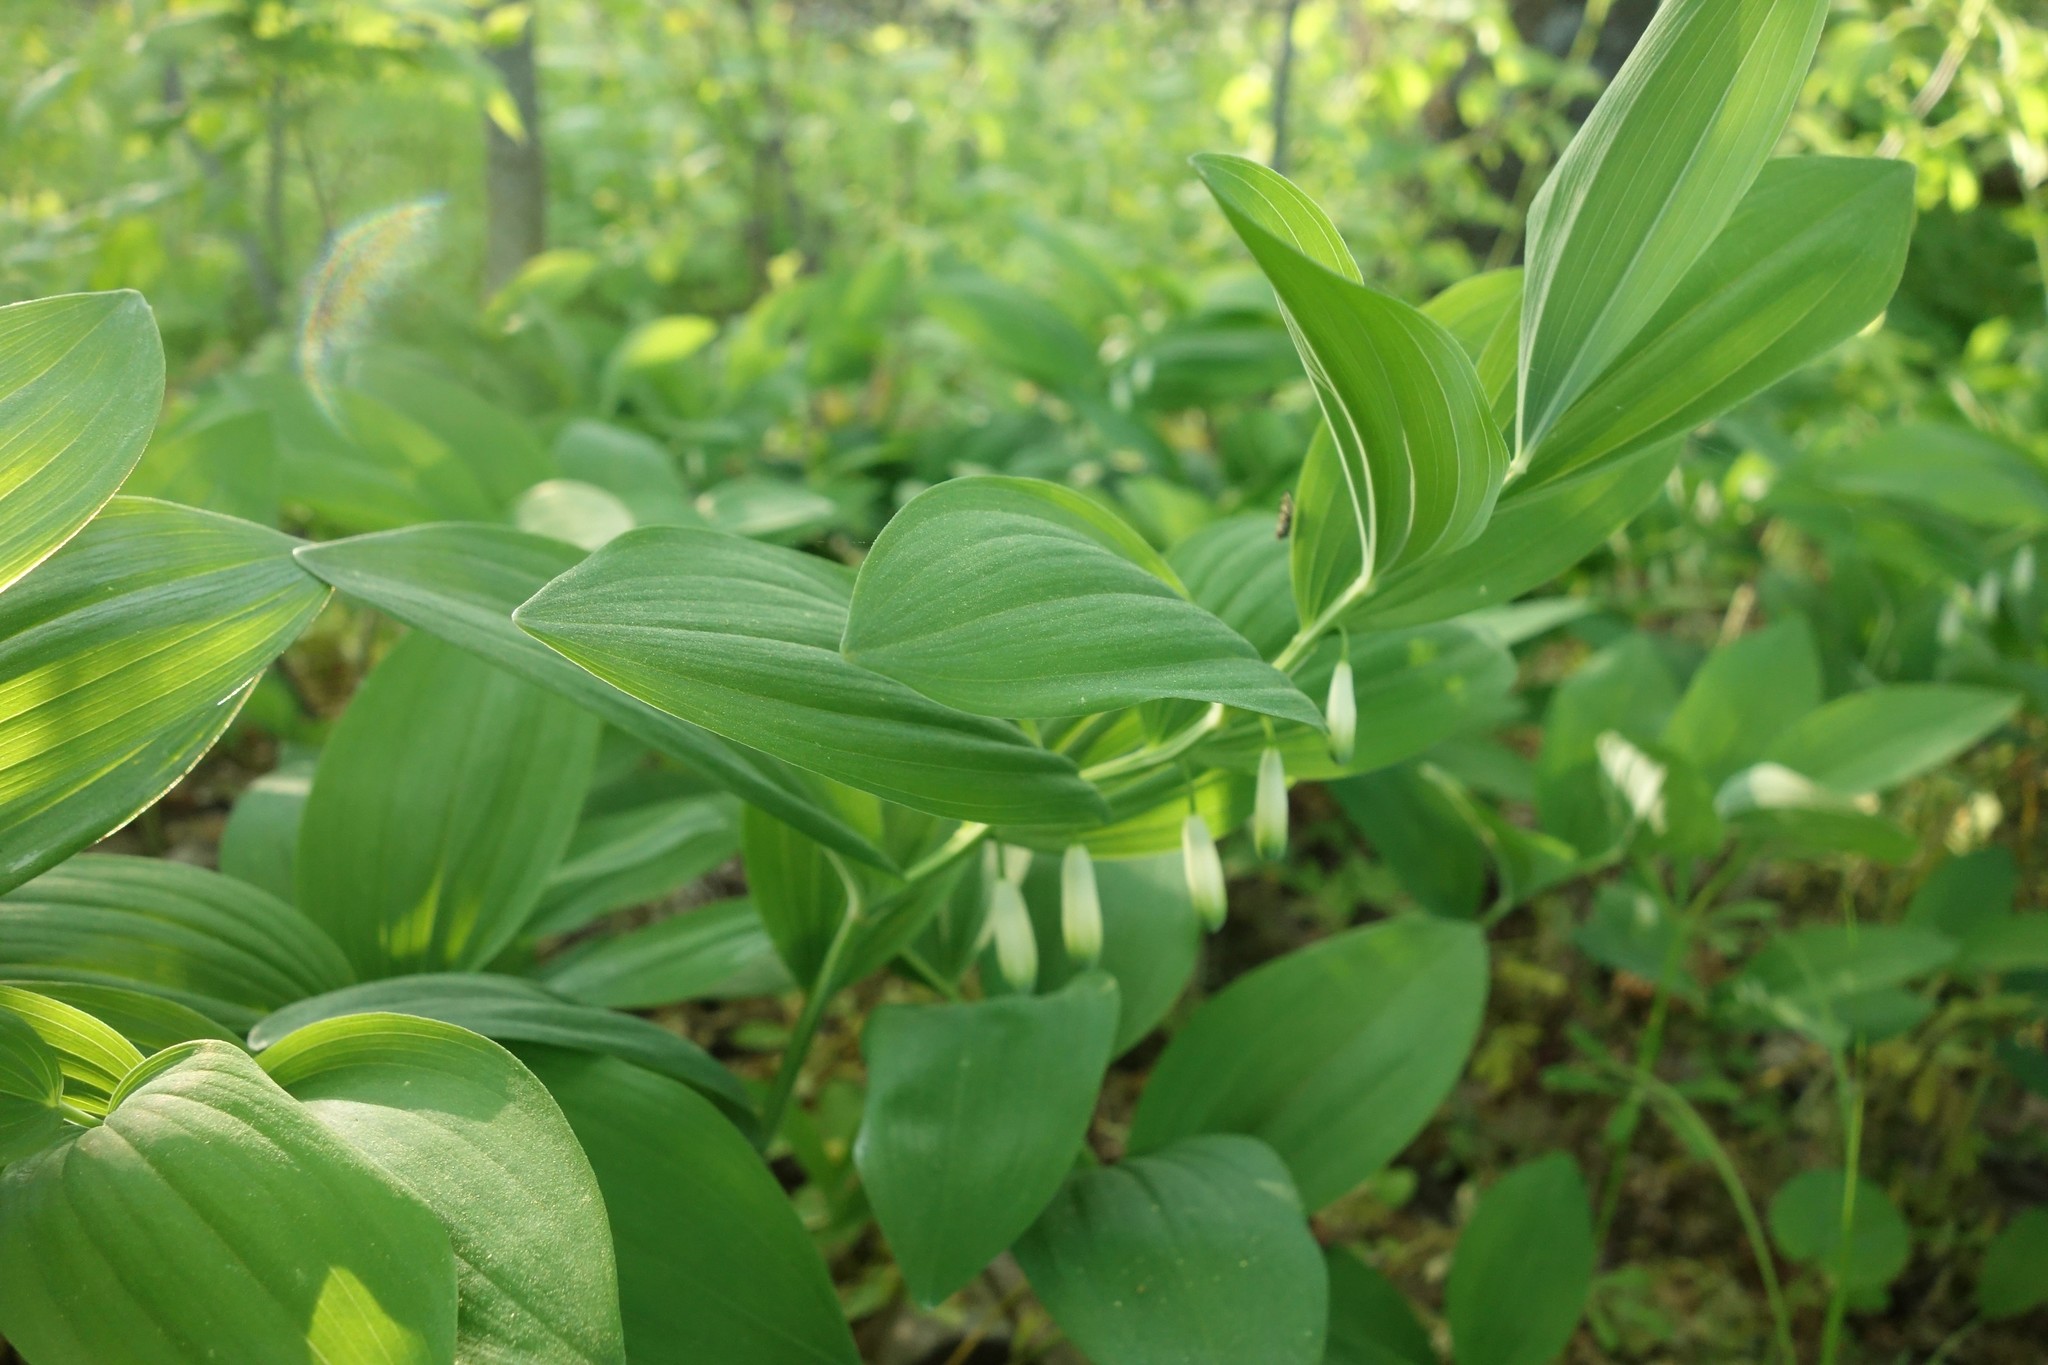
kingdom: Plantae
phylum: Tracheophyta
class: Liliopsida
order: Asparagales
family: Asparagaceae
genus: Polygonatum
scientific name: Polygonatum odoratum
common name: Angular solomon's-seal
